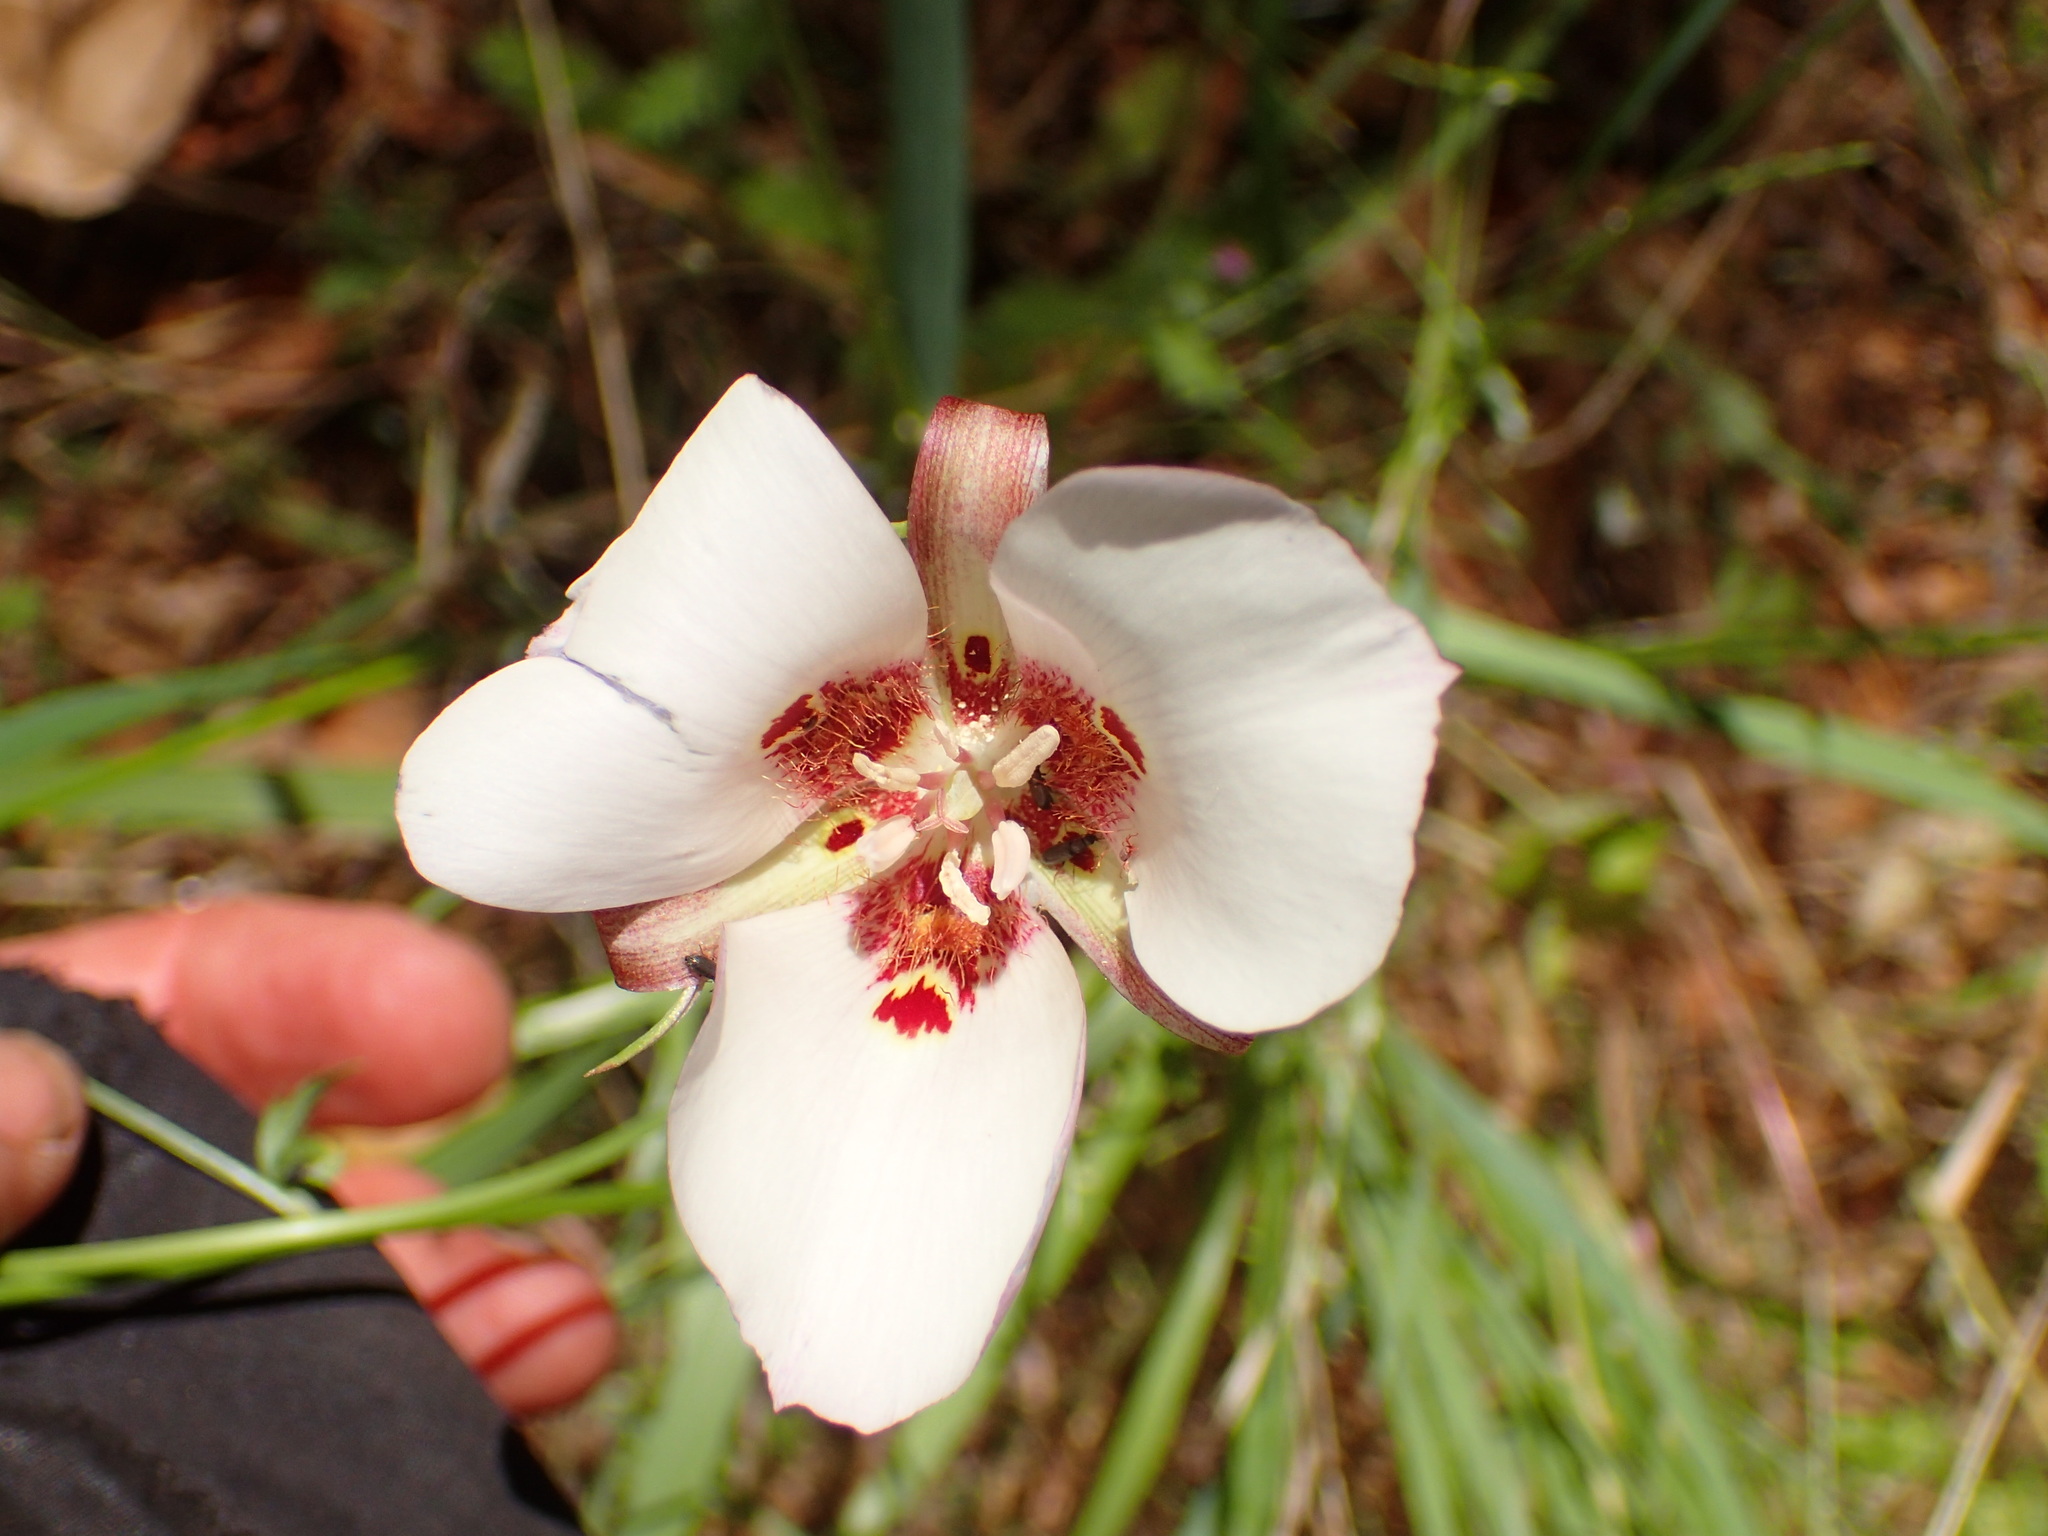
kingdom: Plantae
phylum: Tracheophyta
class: Liliopsida
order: Liliales
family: Liliaceae
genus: Calochortus
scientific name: Calochortus venustus
